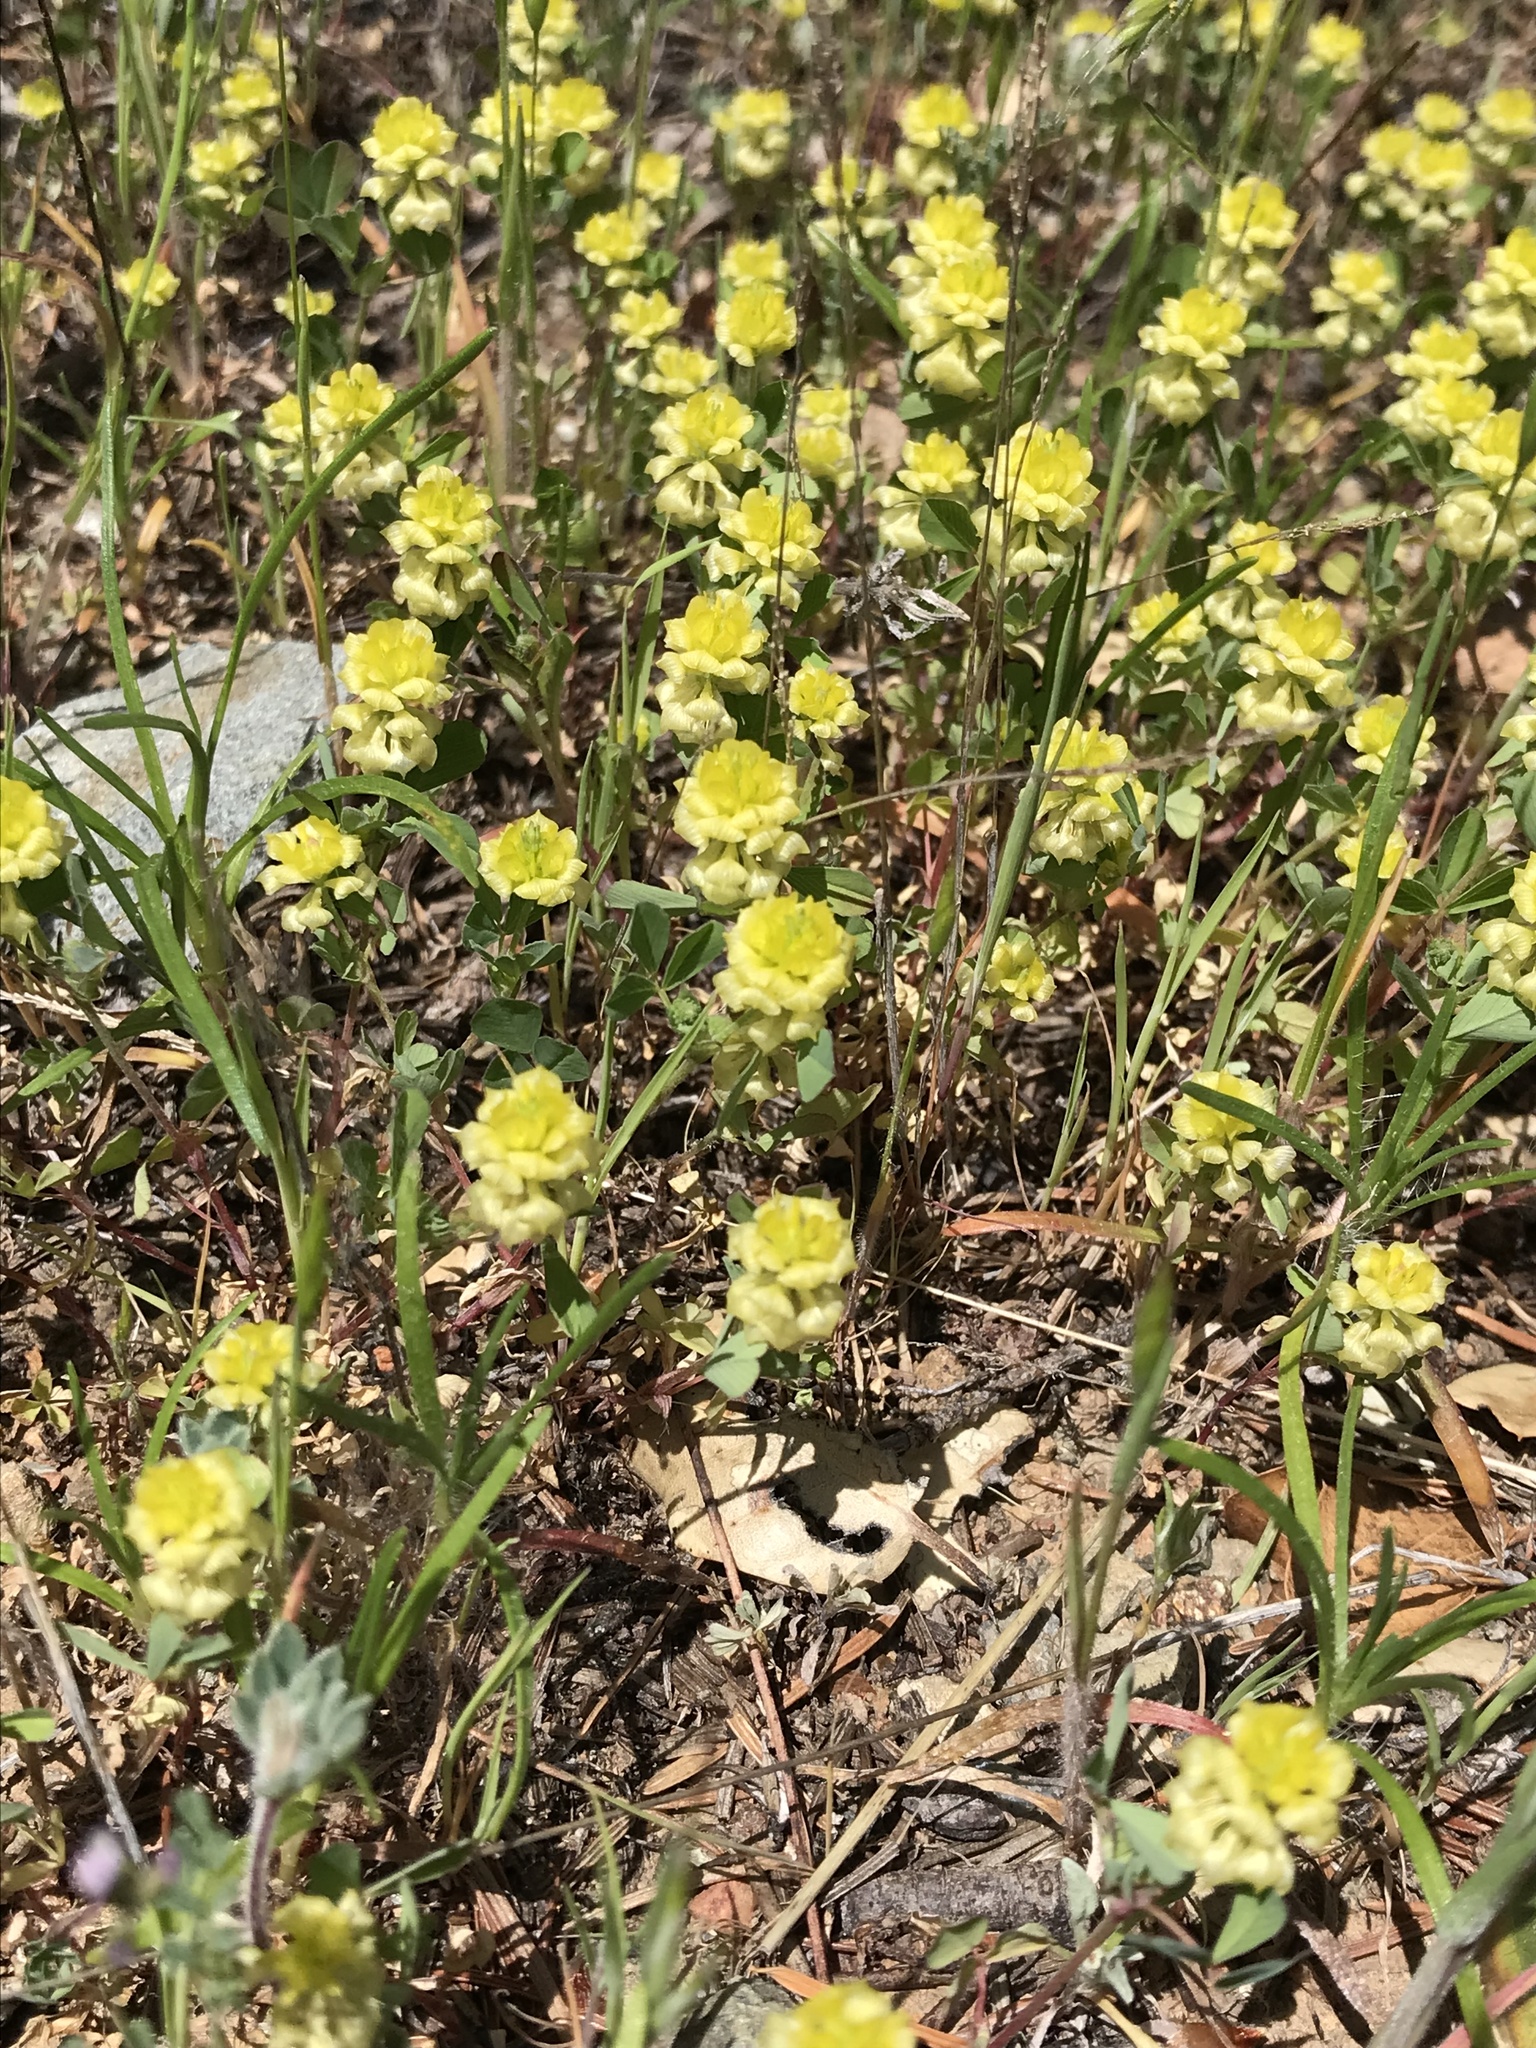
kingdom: Plantae
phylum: Tracheophyta
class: Magnoliopsida
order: Fabales
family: Fabaceae
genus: Trifolium
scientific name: Trifolium campestre
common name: Field clover
